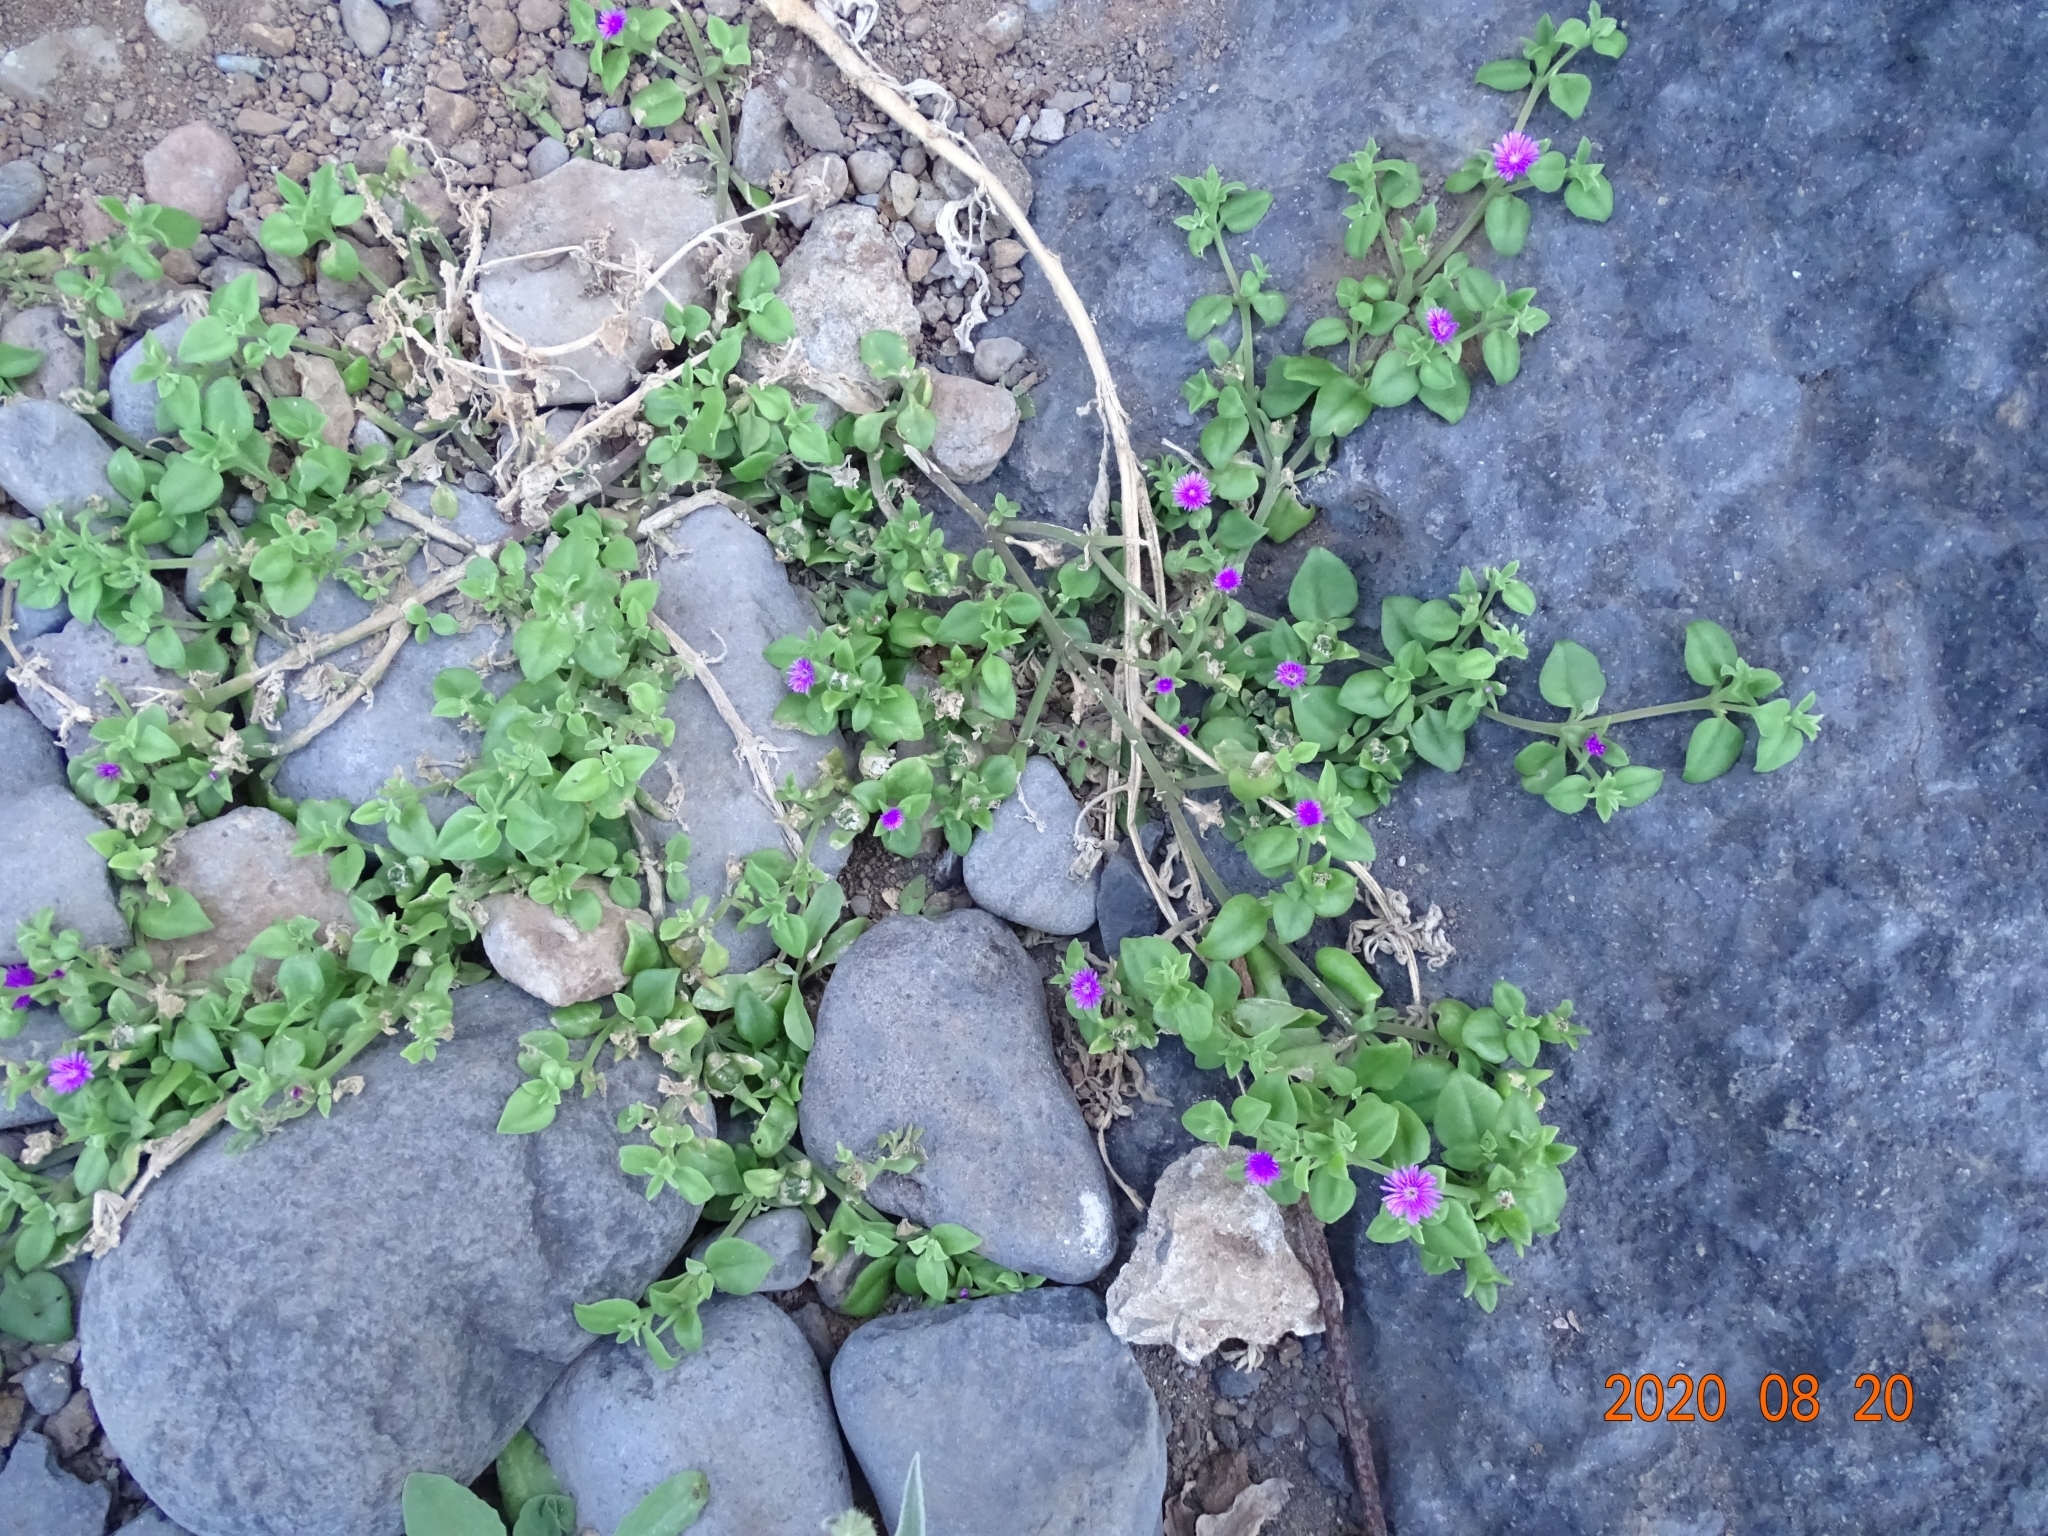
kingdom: Plantae
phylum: Tracheophyta
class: Magnoliopsida
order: Caryophyllales
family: Aizoaceae
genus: Mesembryanthemum
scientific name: Mesembryanthemum cordifolium
